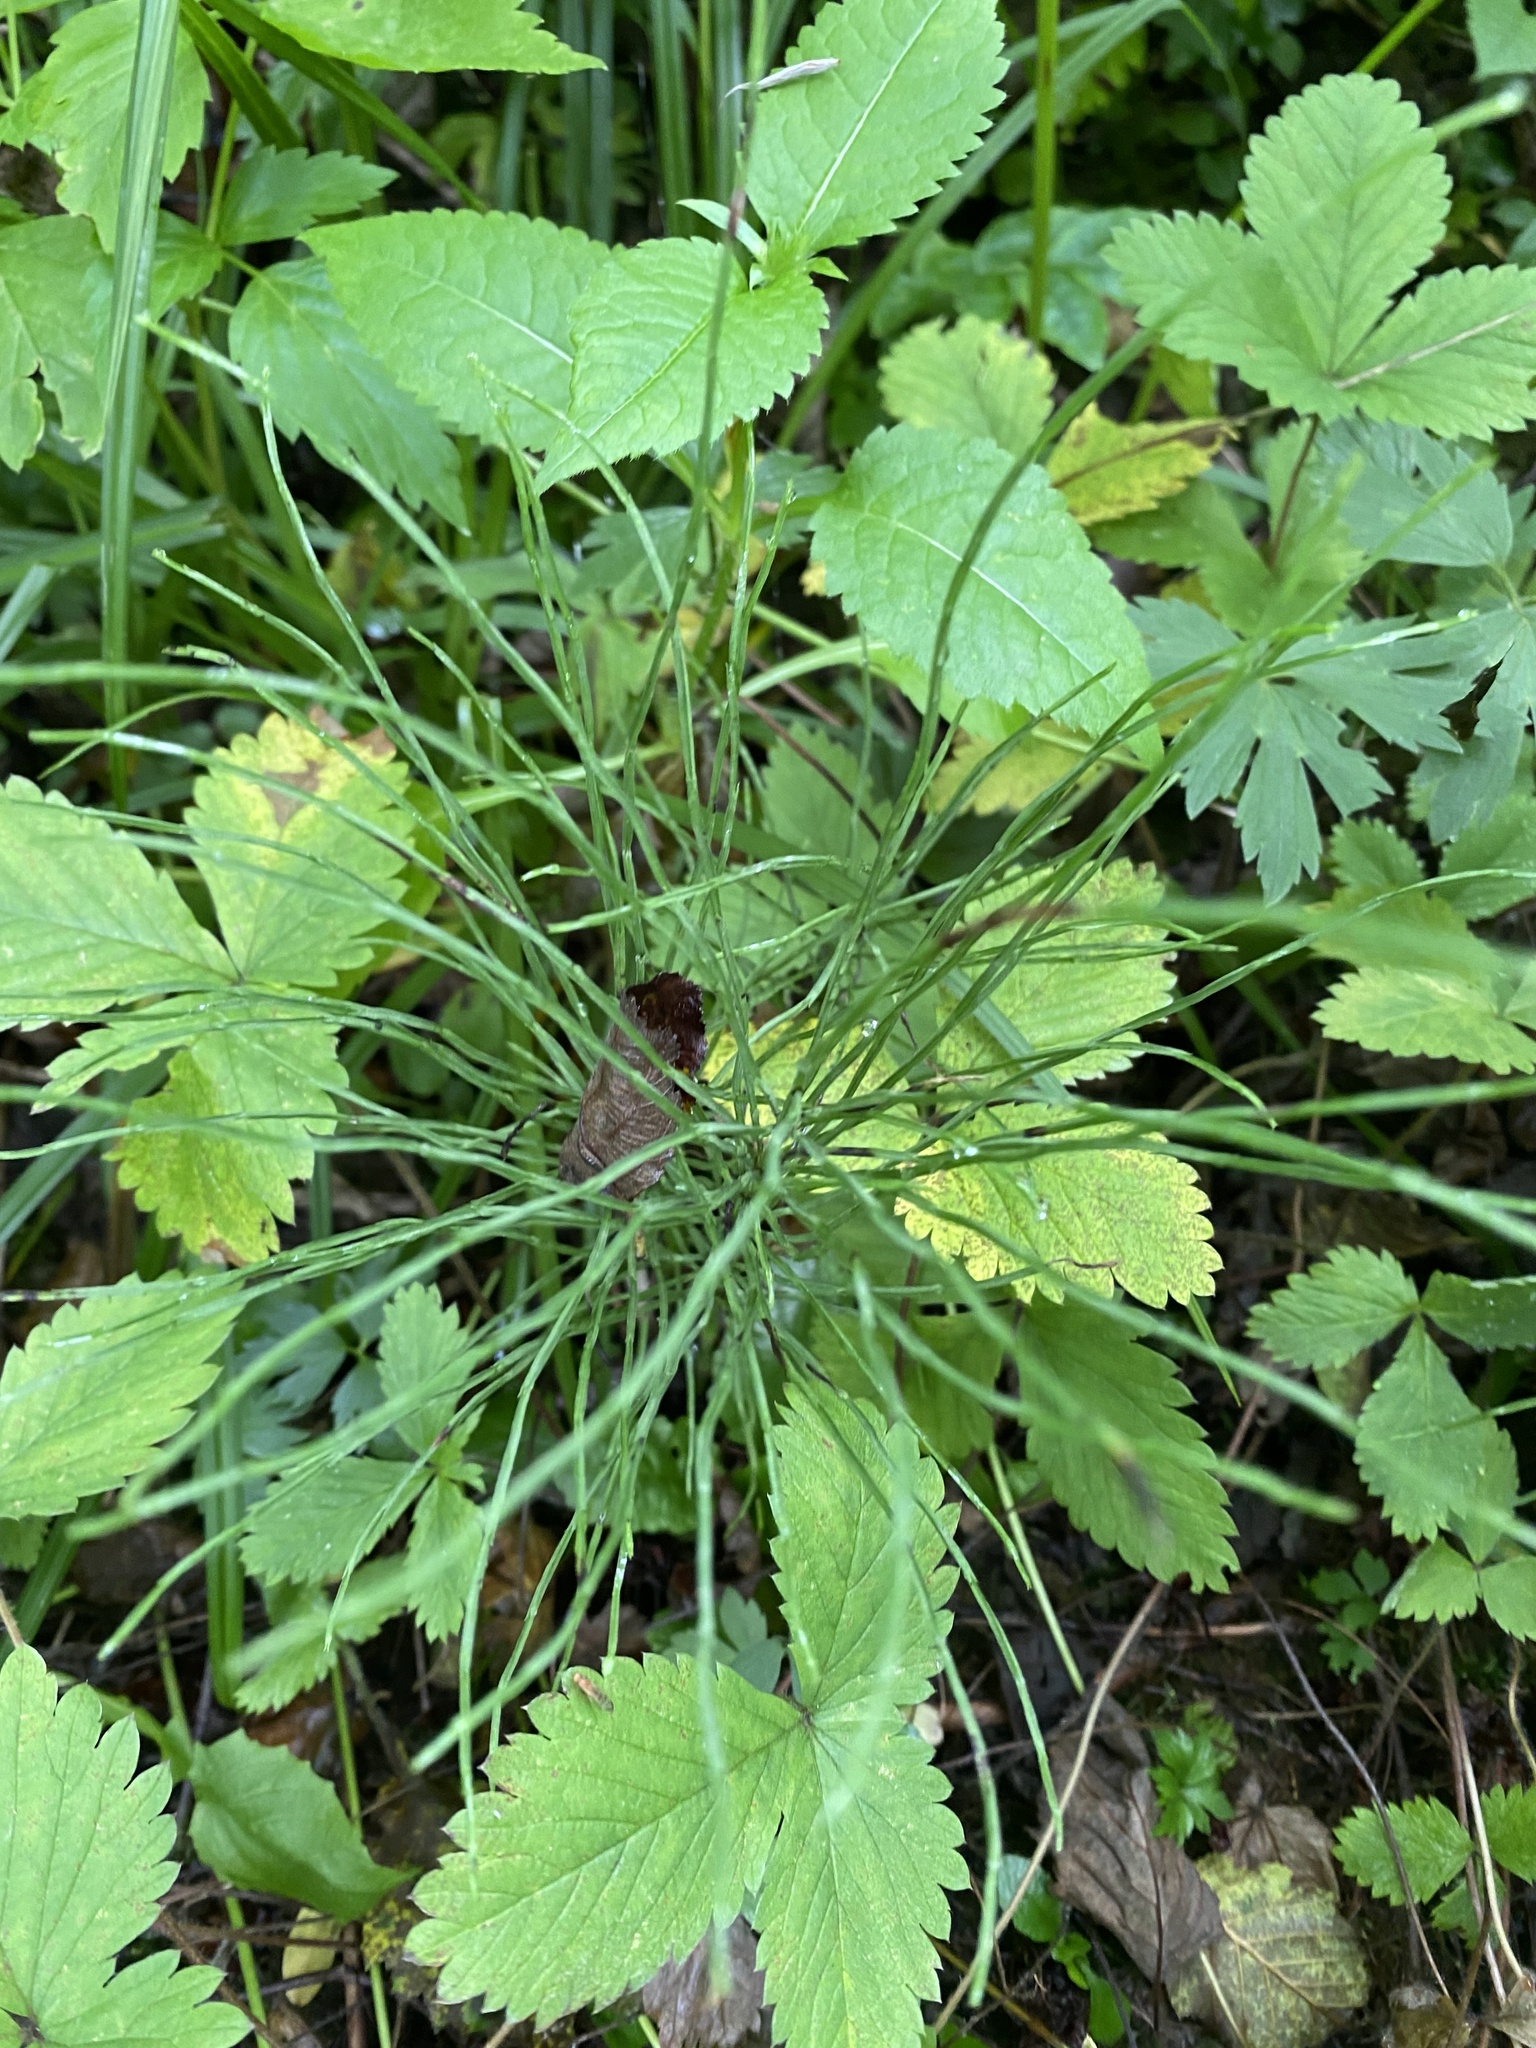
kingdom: Plantae
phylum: Tracheophyta
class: Polypodiopsida
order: Equisetales
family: Equisetaceae
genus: Equisetum
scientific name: Equisetum arvense
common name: Field horsetail
